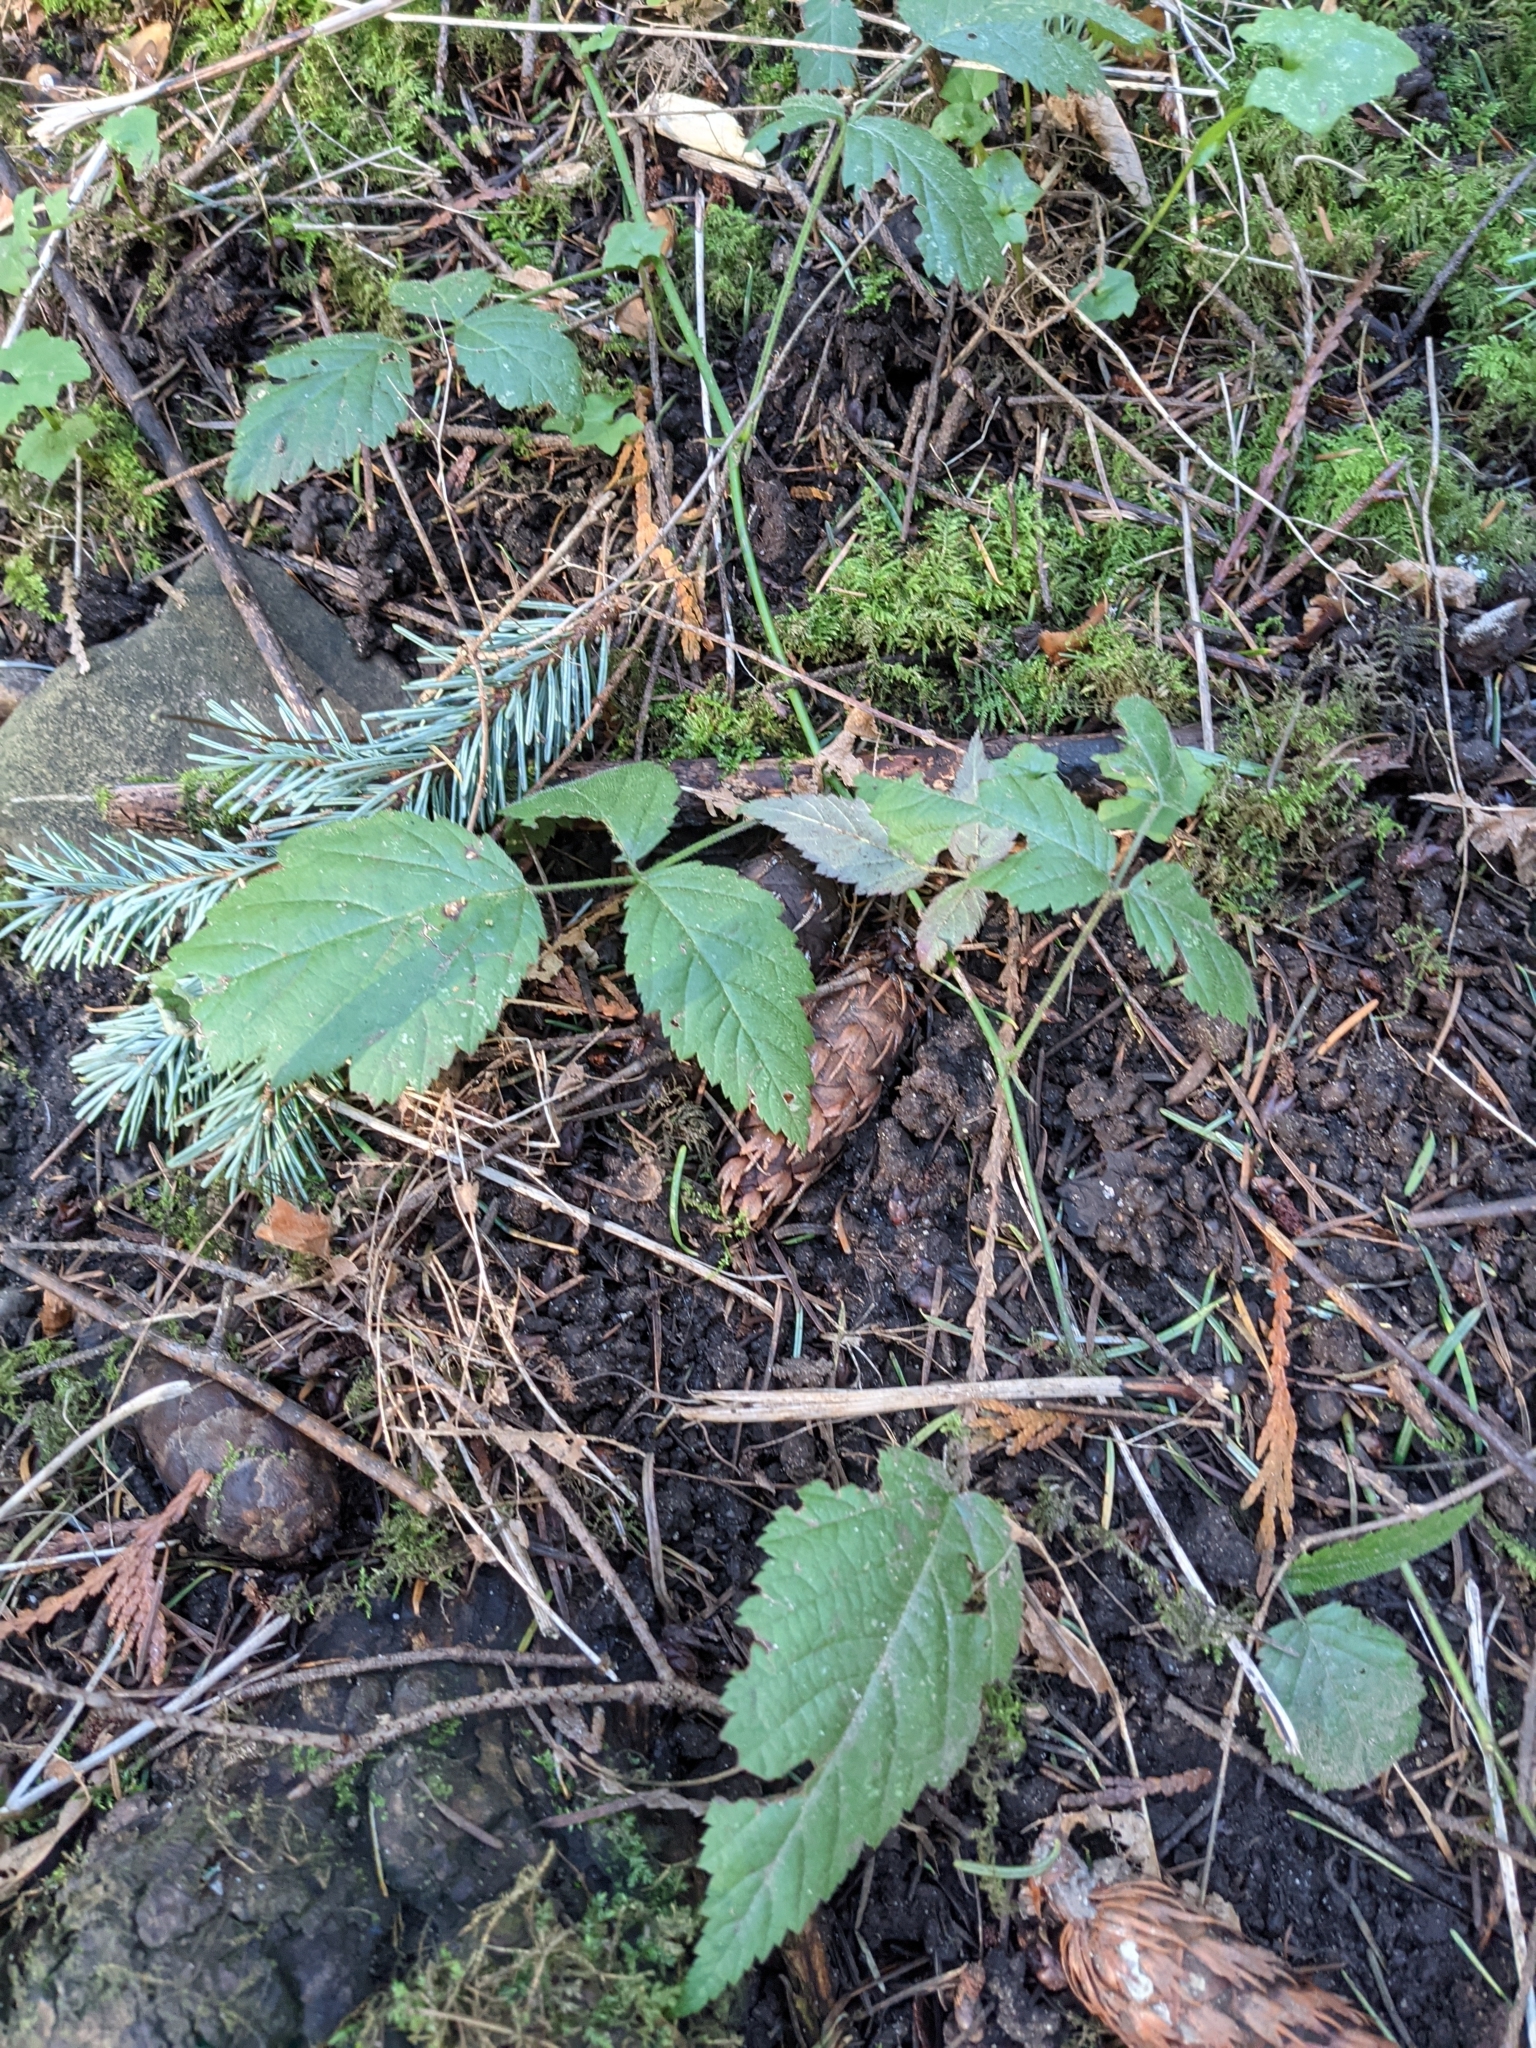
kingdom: Plantae
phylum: Tracheophyta
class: Magnoliopsida
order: Rosales
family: Rosaceae
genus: Rubus
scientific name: Rubus ursinus
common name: Pacific blackberry
